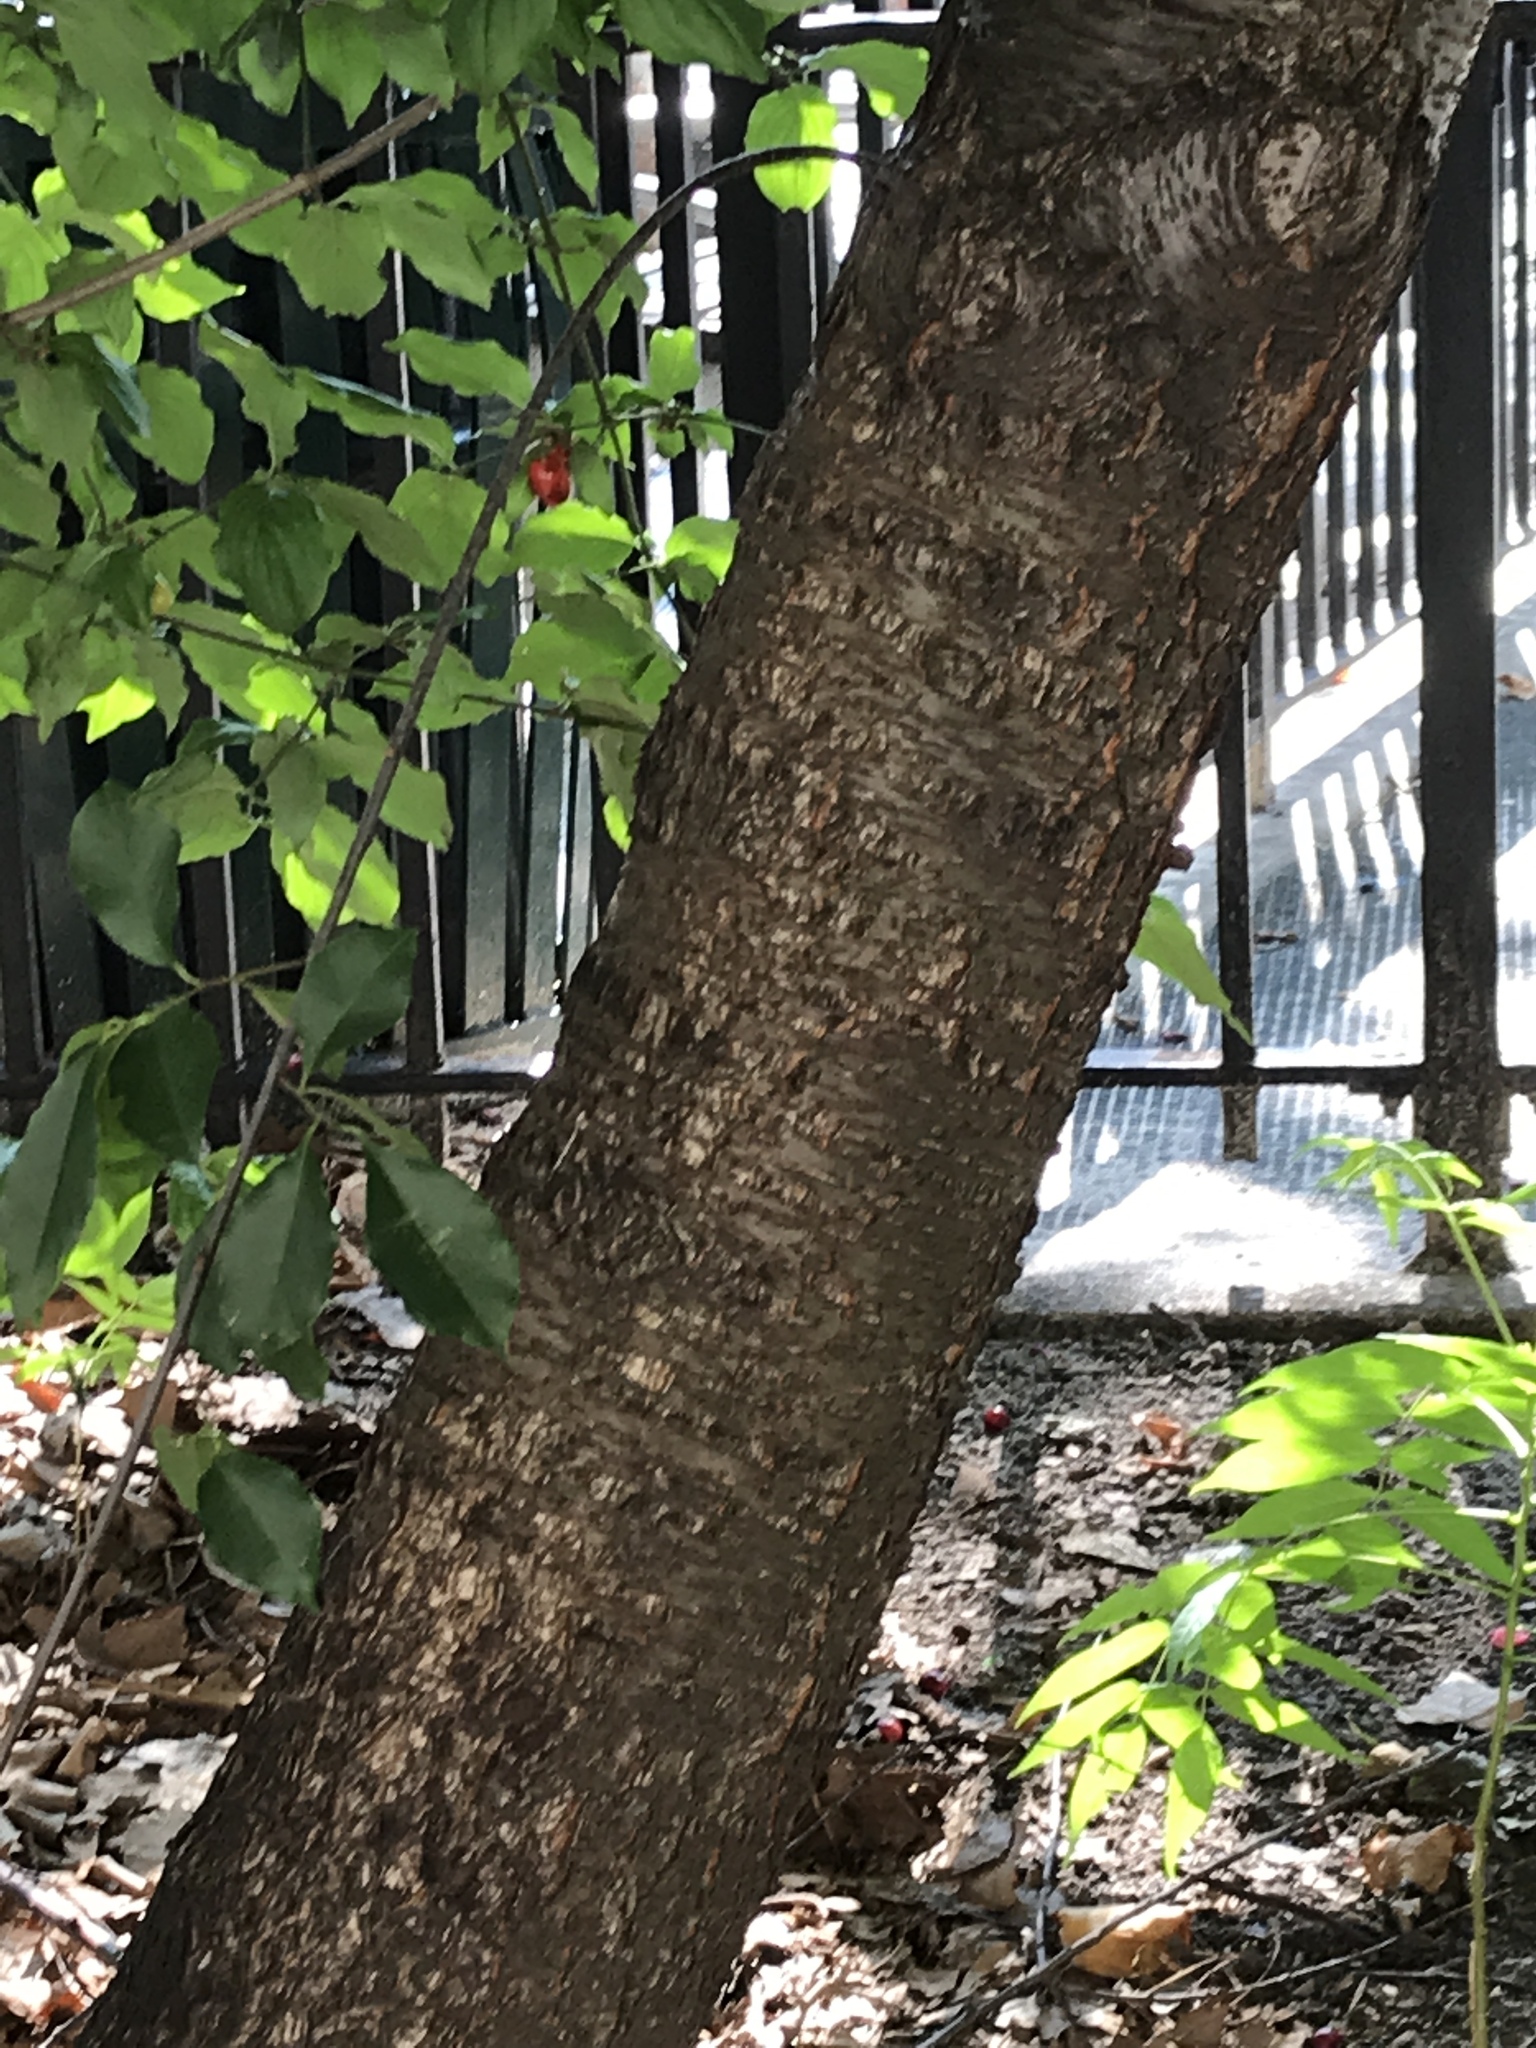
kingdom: Plantae
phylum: Tracheophyta
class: Magnoliopsida
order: Cornales
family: Cornaceae
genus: Cornus
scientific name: Cornus mas
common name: Cornelian-cherry
